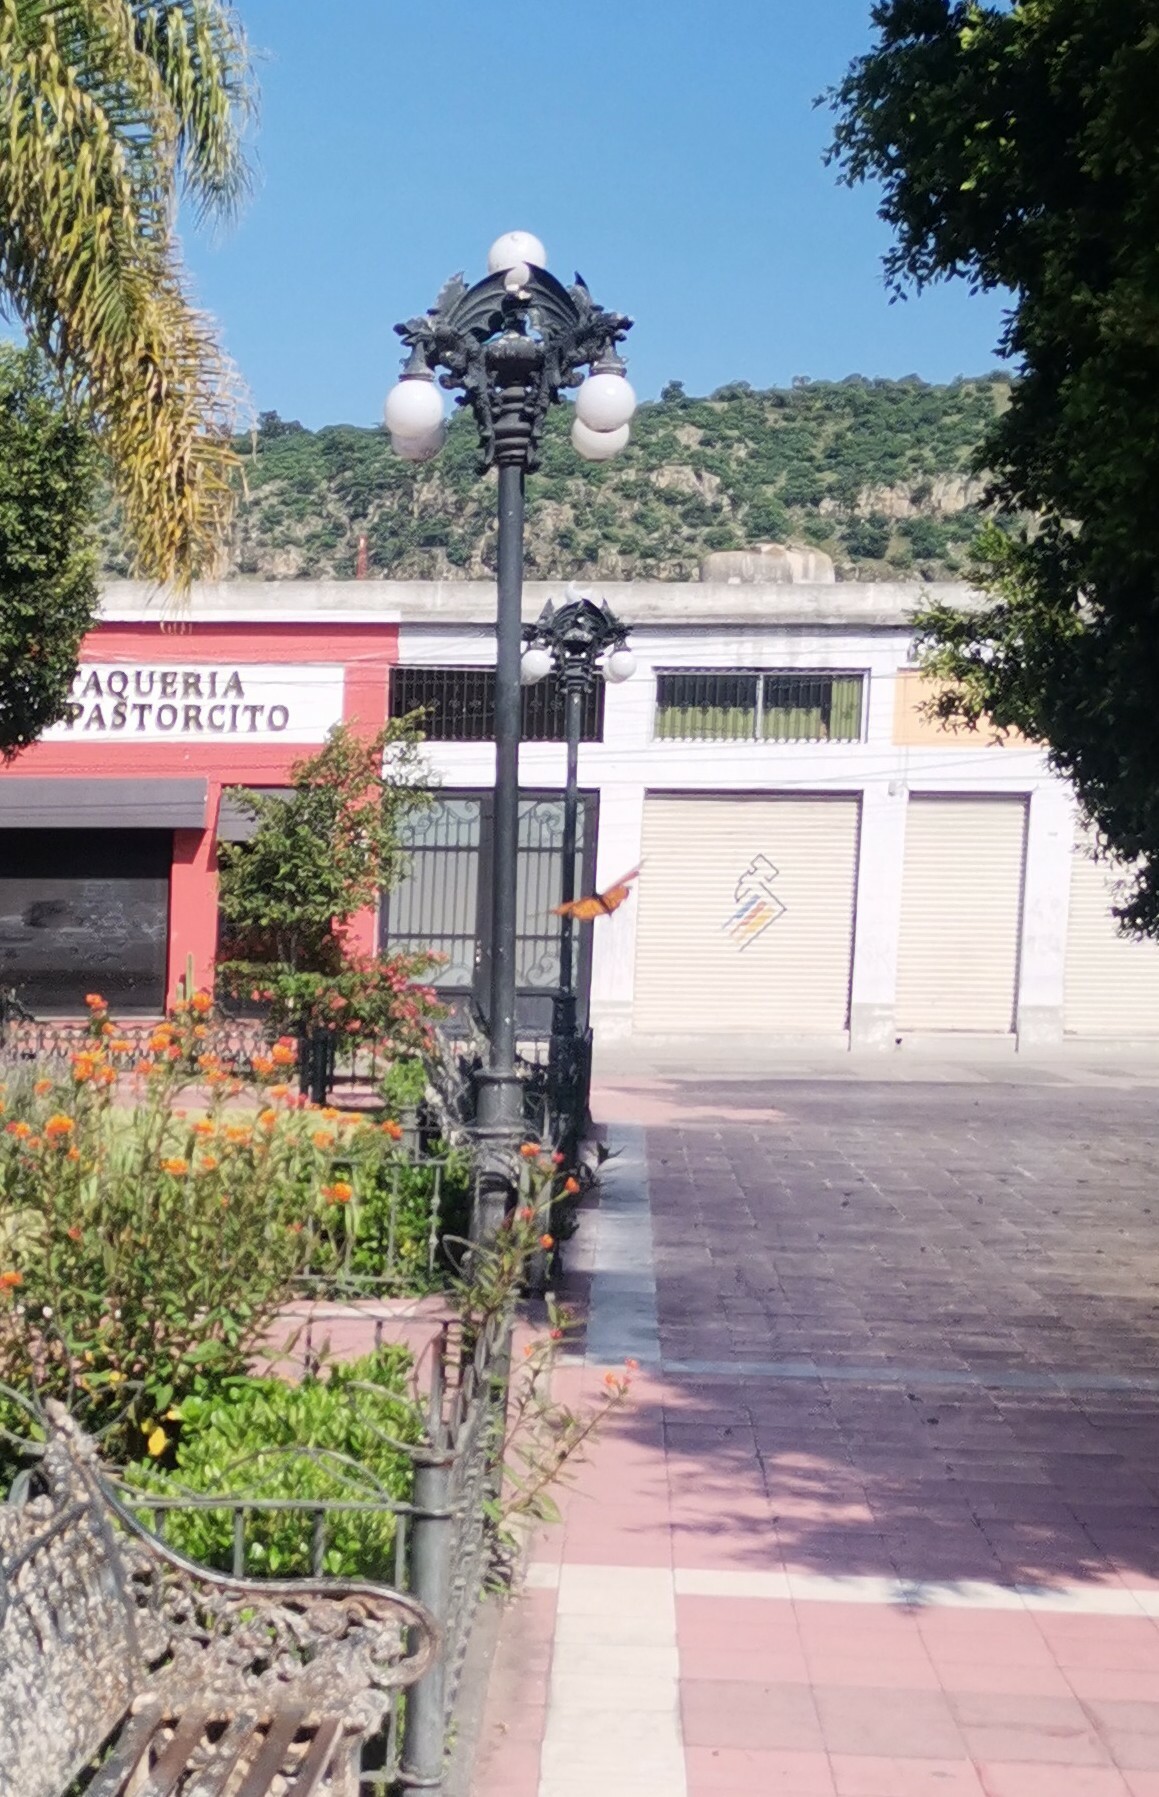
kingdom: Animalia
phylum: Arthropoda
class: Insecta
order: Lepidoptera
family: Nymphalidae
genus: Danaus
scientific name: Danaus plexippus
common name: Monarch
